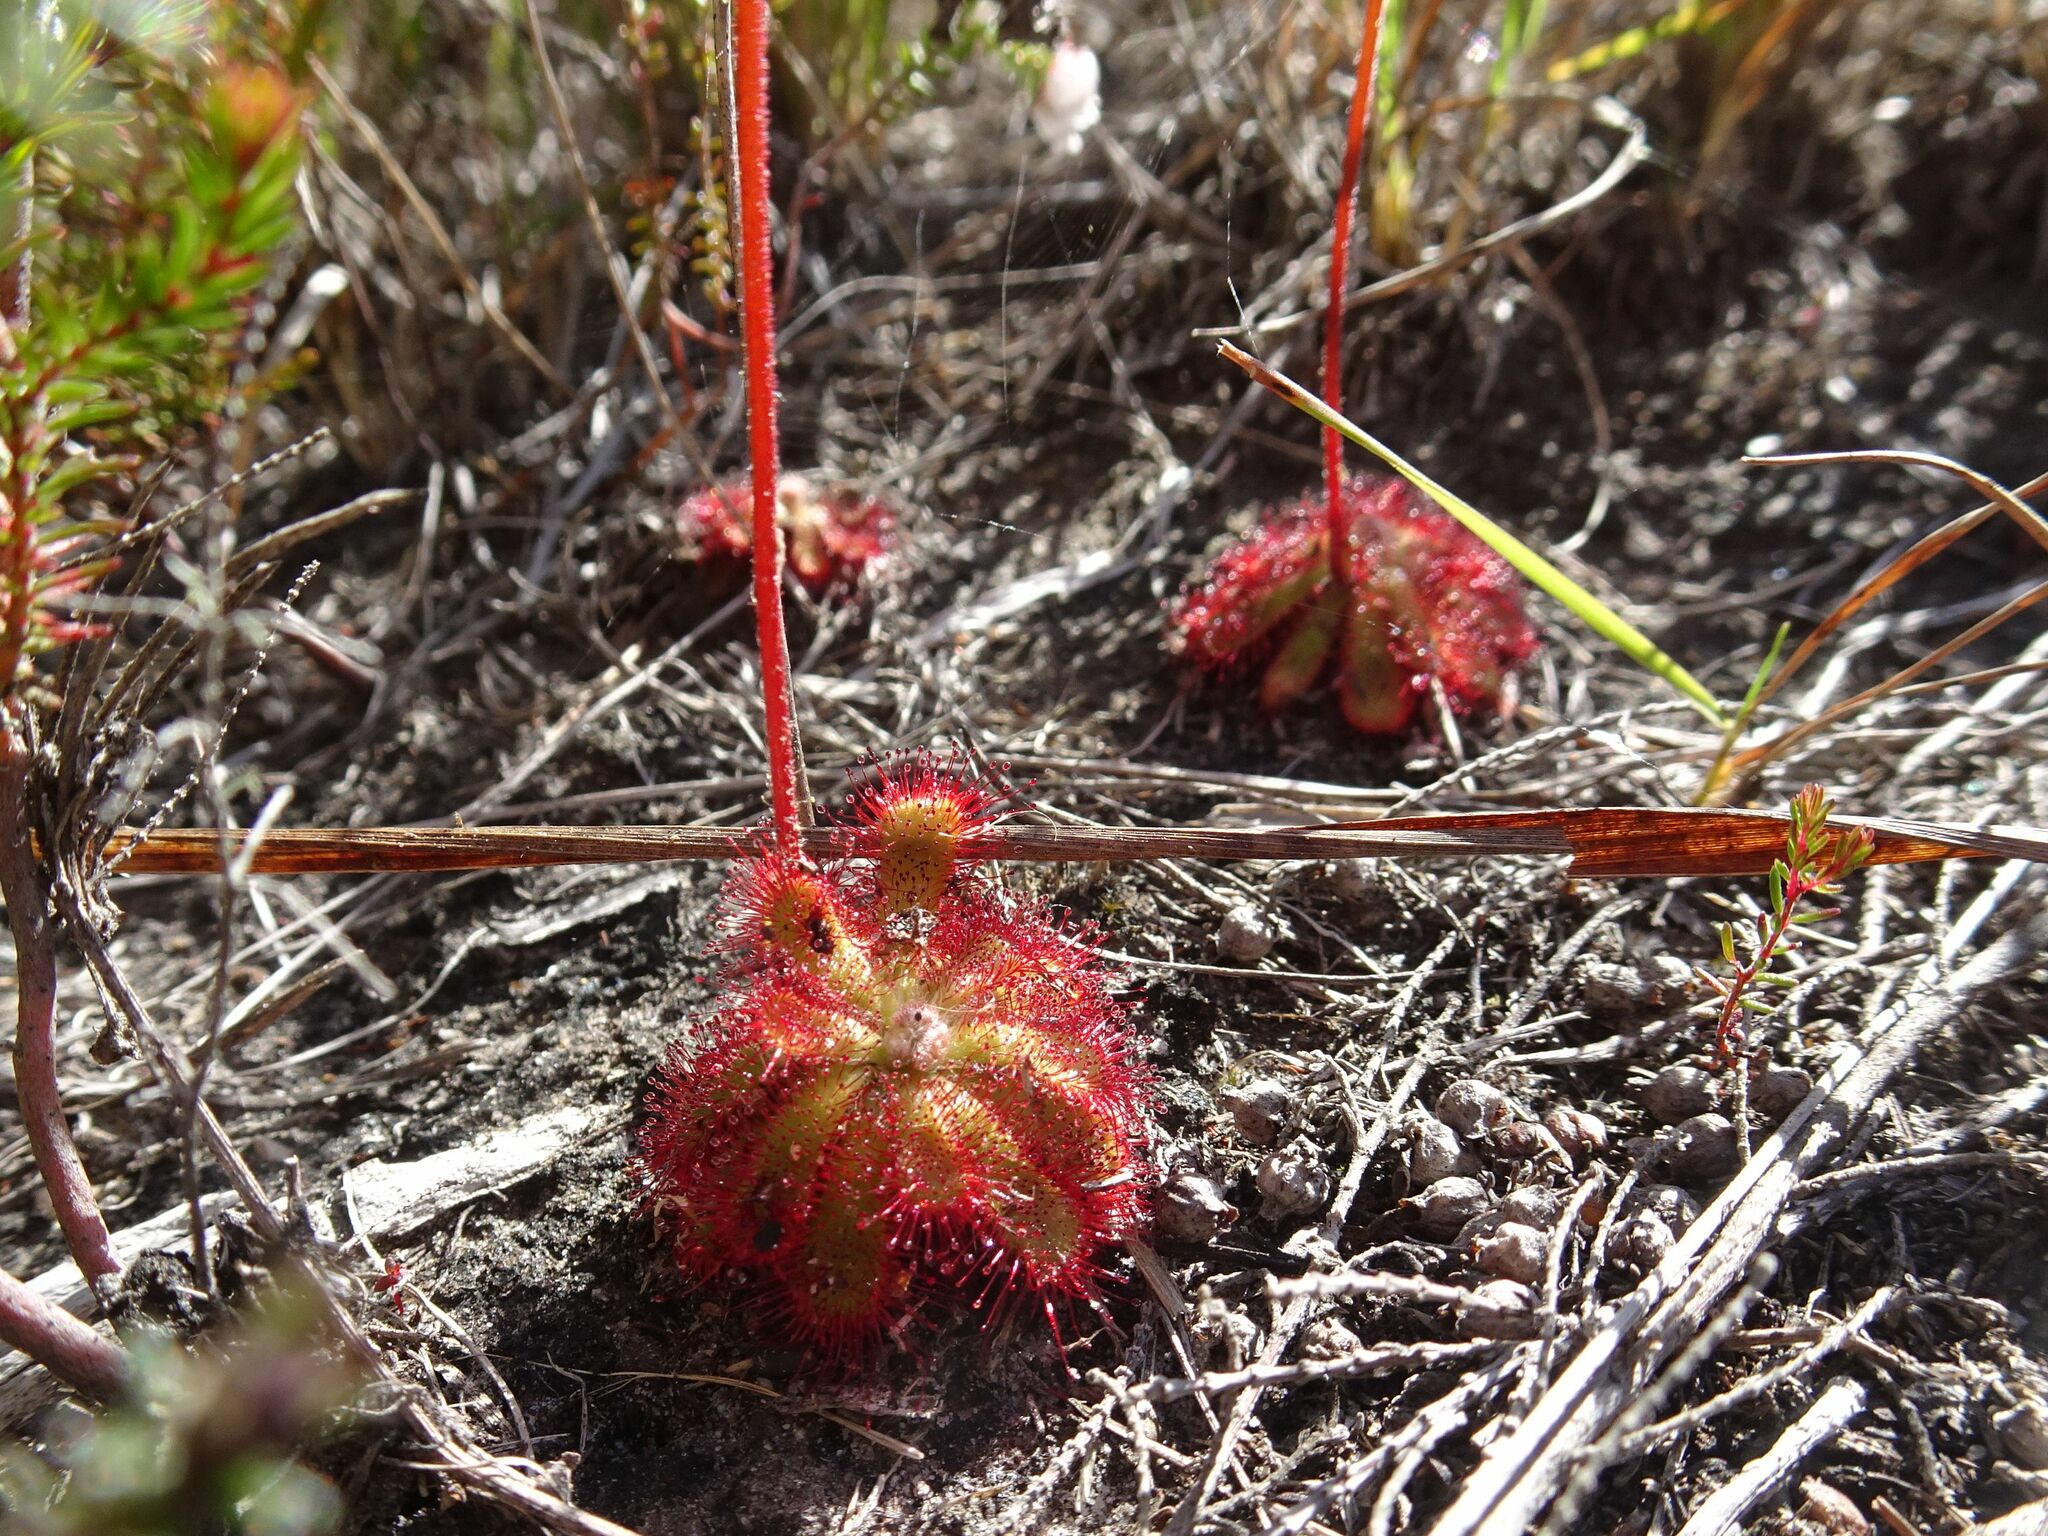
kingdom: Plantae
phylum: Tracheophyta
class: Magnoliopsida
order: Caryophyllales
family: Droseraceae
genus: Drosera
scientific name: Drosera aliciae
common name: Alice sundew
